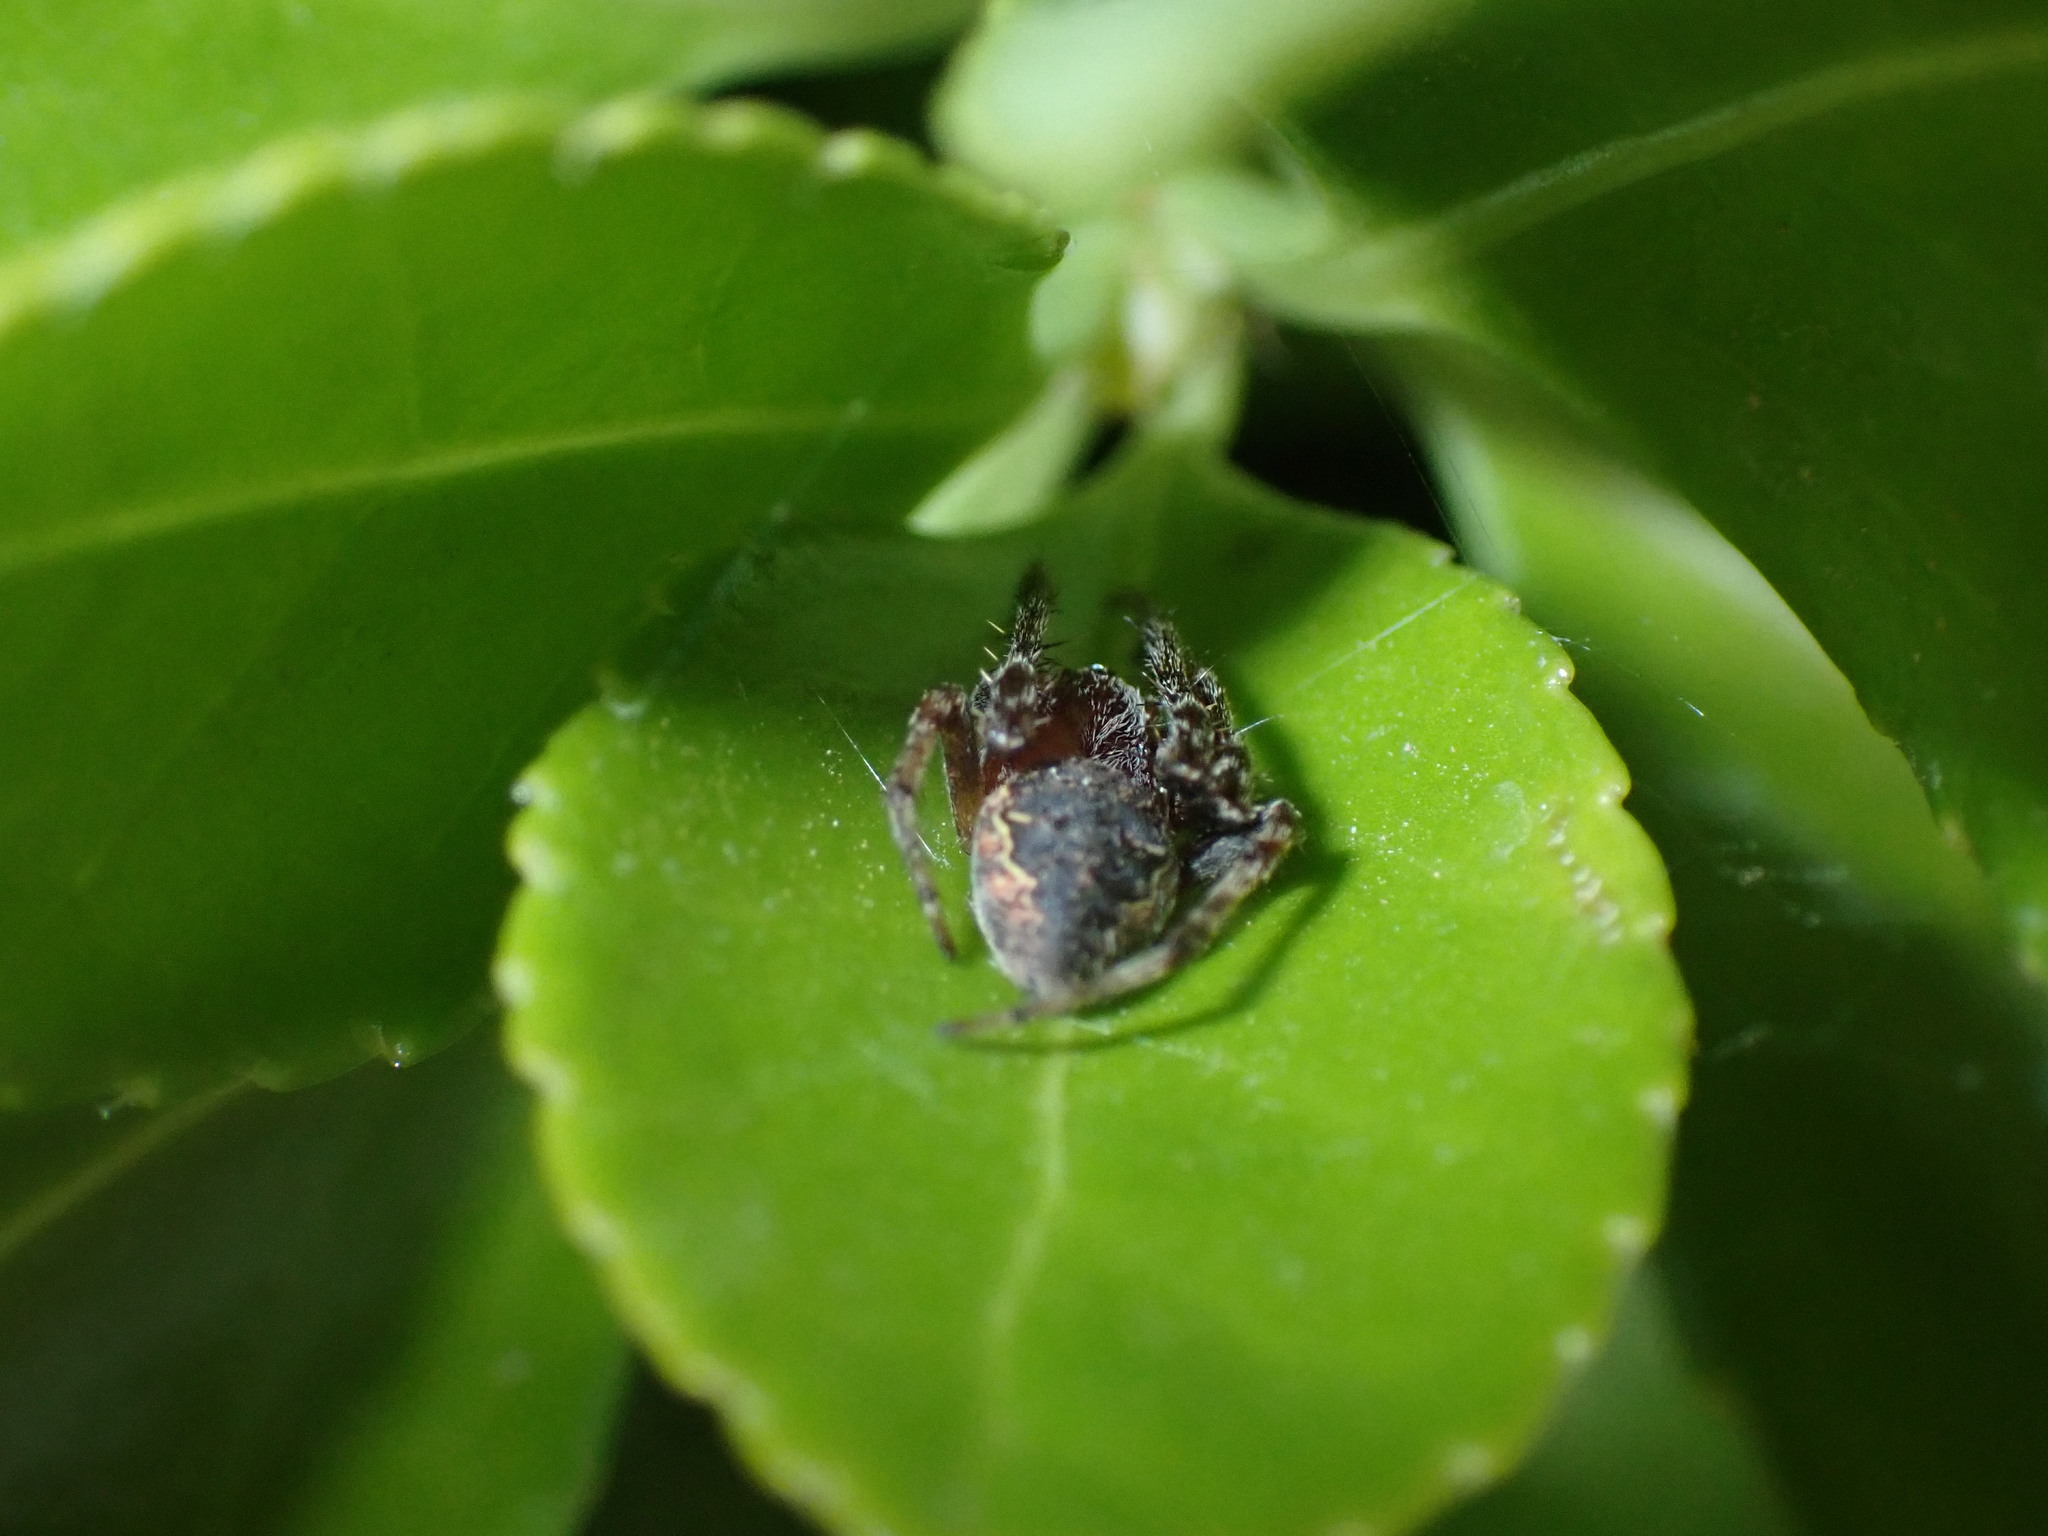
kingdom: Animalia
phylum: Arthropoda
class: Arachnida
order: Araneae
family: Araneidae
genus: Nuctenea
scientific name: Nuctenea umbratica
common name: Toad spider
